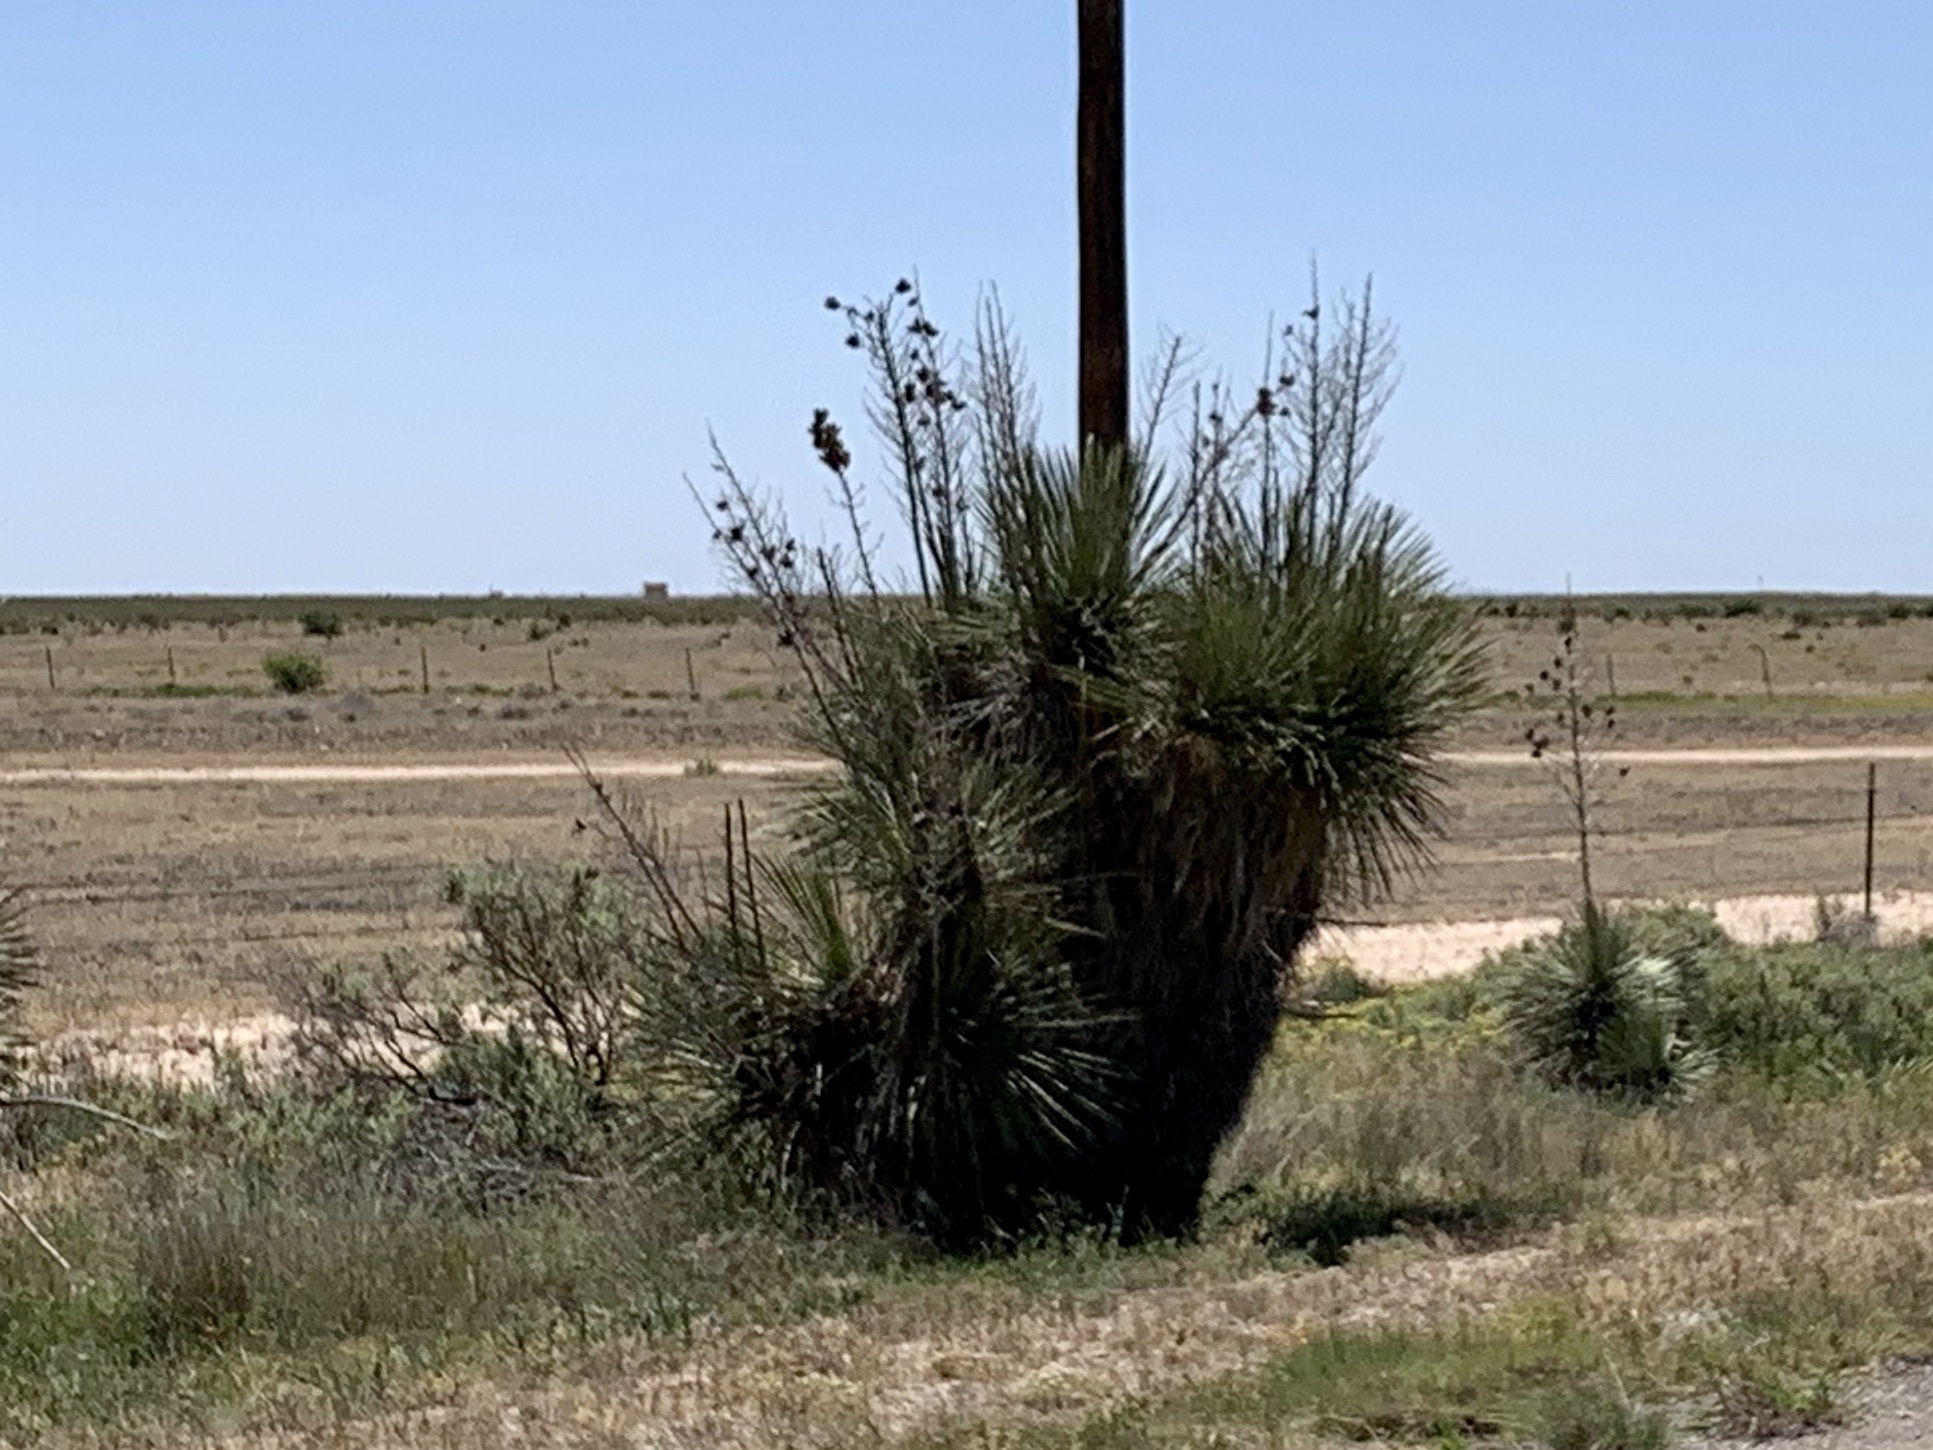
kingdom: Plantae
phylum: Tracheophyta
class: Liliopsida
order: Asparagales
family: Asparagaceae
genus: Yucca
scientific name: Yucca elata
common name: Palmella
